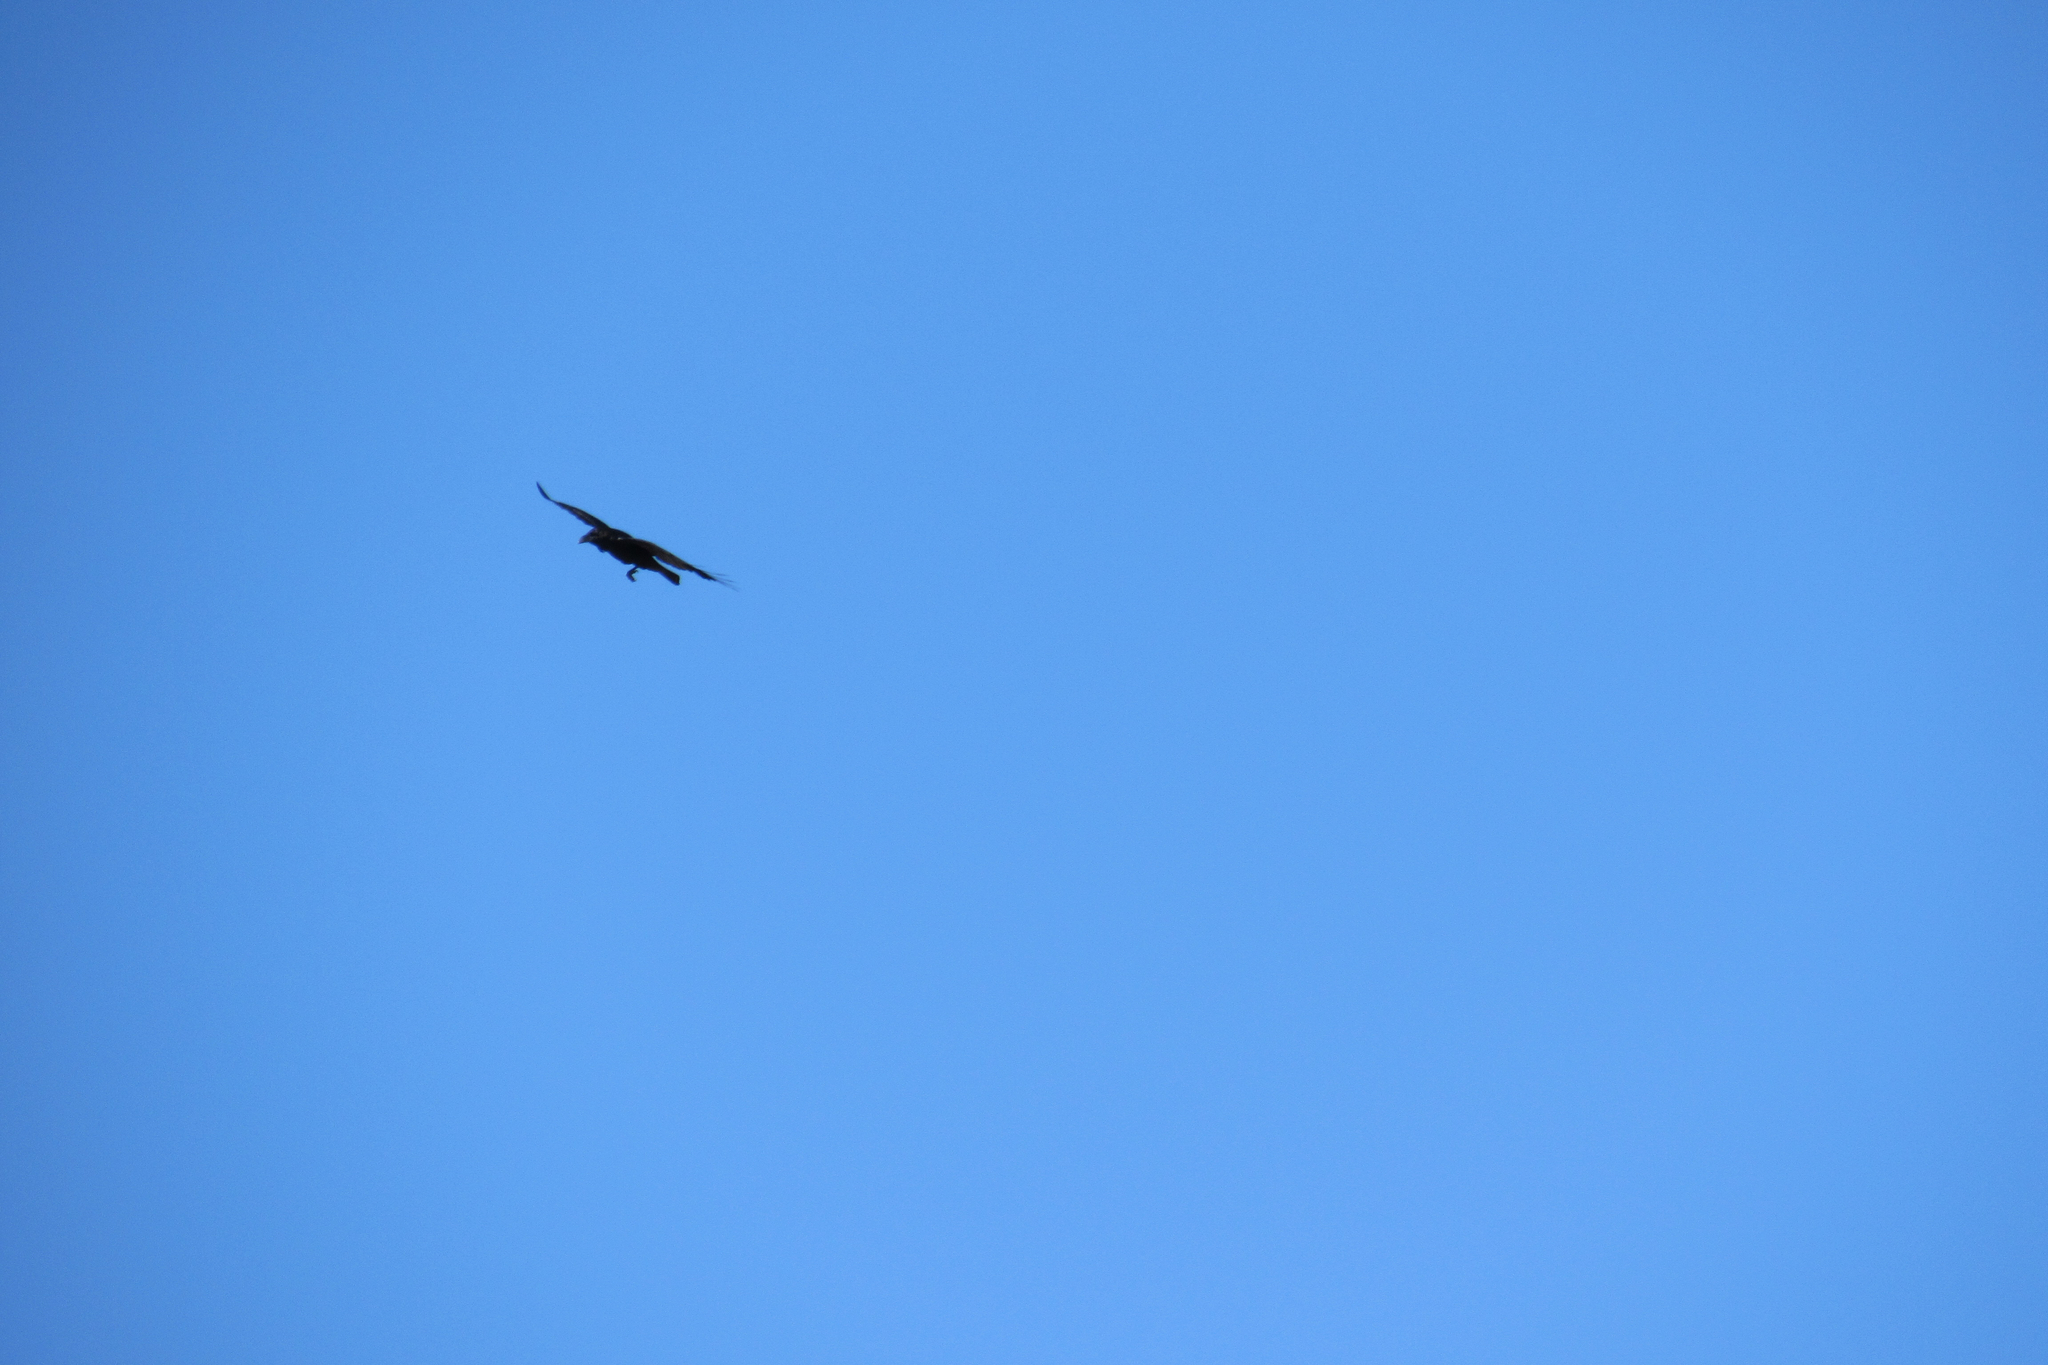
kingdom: Animalia
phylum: Chordata
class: Aves
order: Passeriformes
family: Corvidae
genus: Corvus
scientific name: Corvus corax
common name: Common raven
